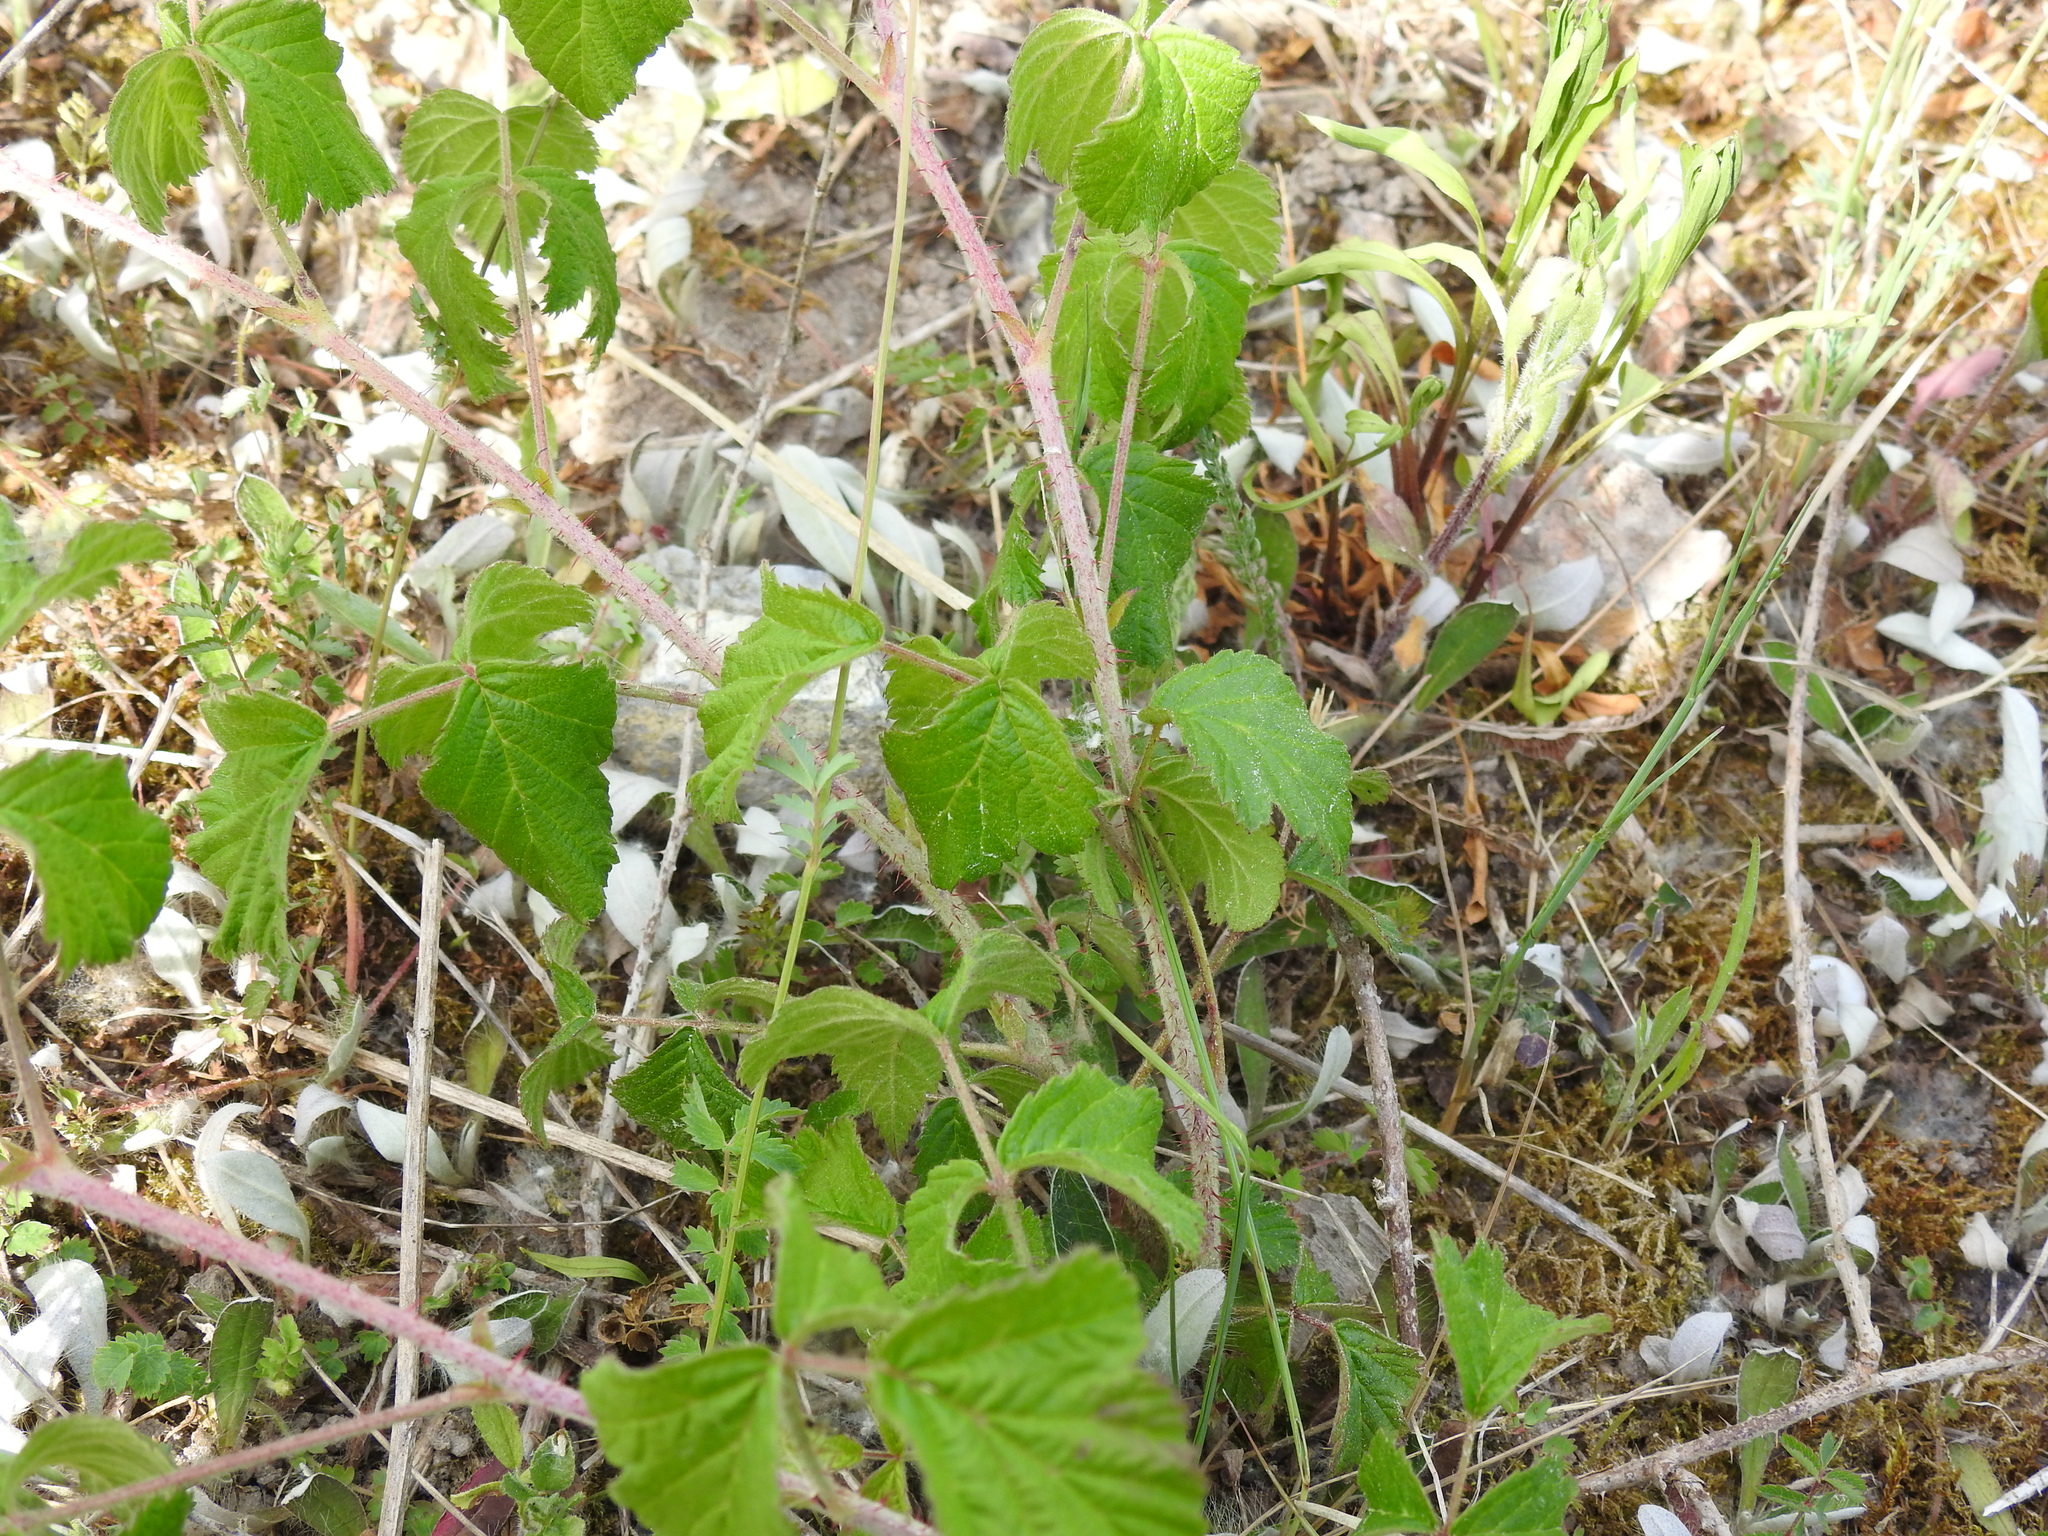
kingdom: Plantae
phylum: Tracheophyta
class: Magnoliopsida
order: Rosales
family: Rosaceae
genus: Rubus
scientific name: Rubus caesius
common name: Dewberry
